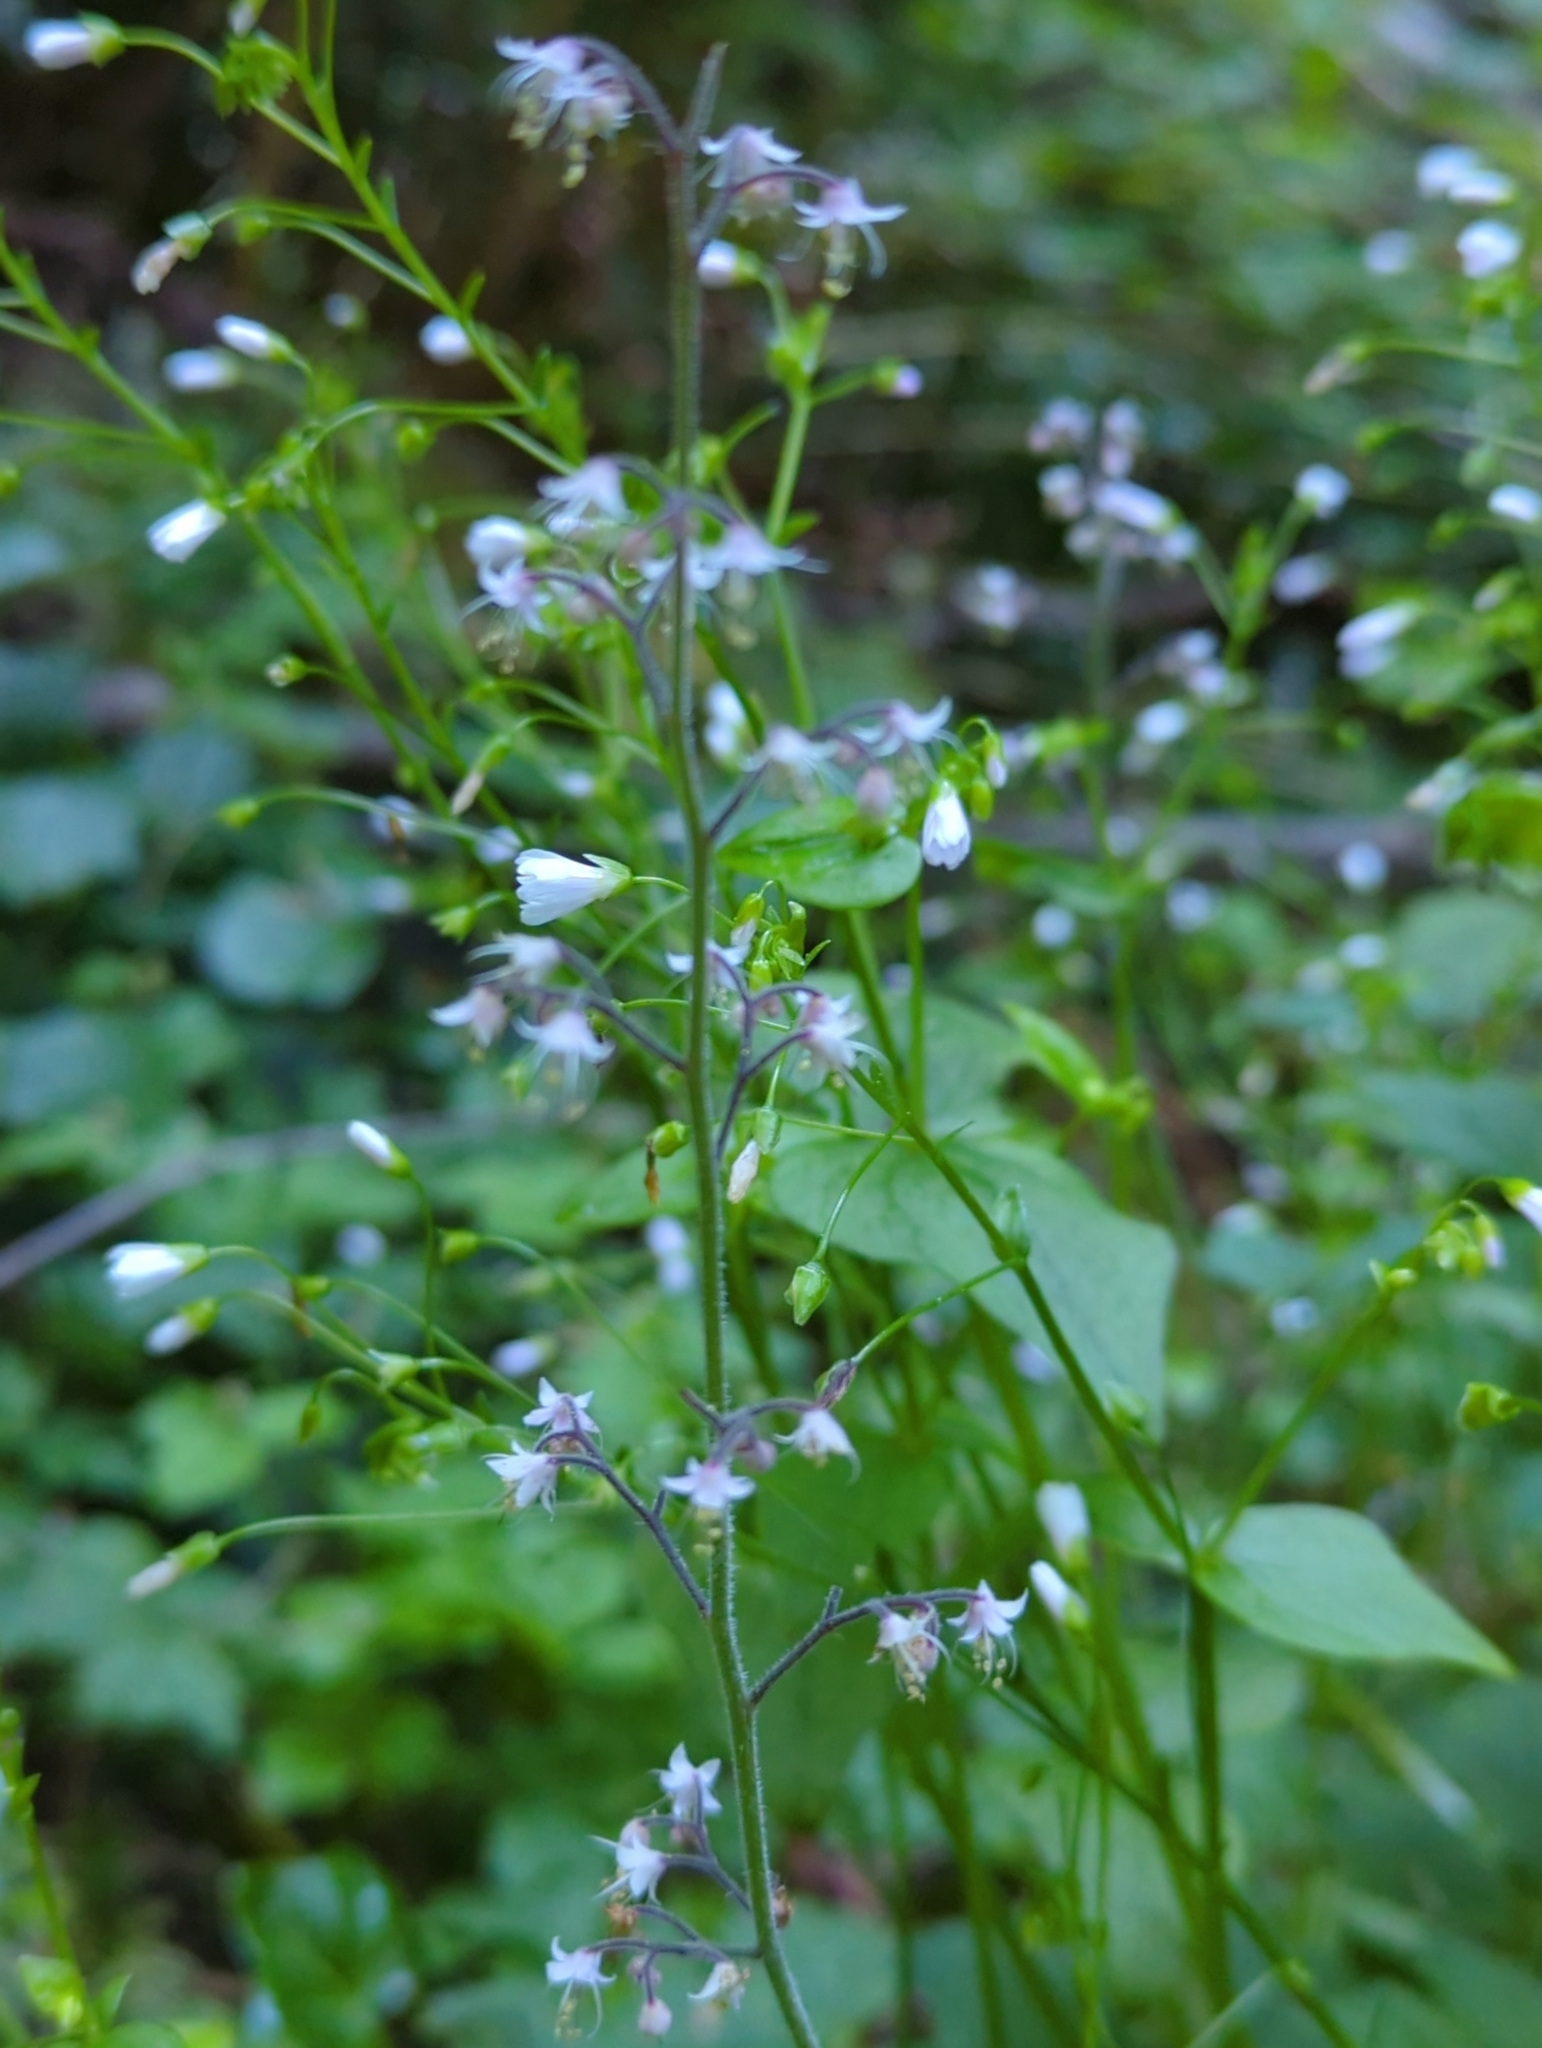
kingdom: Plantae
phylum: Tracheophyta
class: Magnoliopsida
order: Saxifragales
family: Saxifragaceae
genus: Tiarella
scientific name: Tiarella trifoliata
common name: Sugar-scoop
